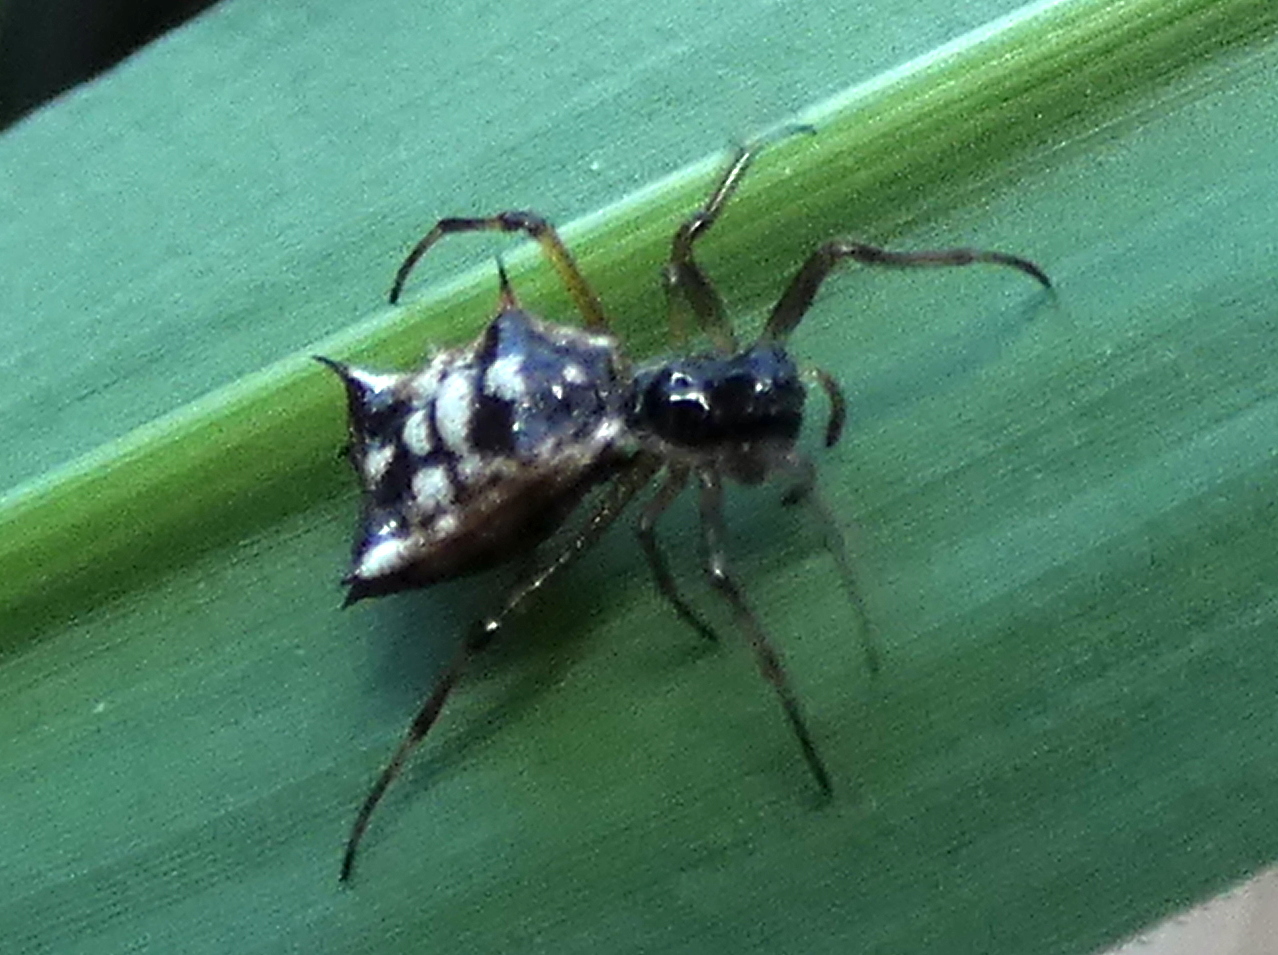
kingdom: Animalia
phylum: Arthropoda
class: Arachnida
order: Araneae
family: Araneidae
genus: Micrathena
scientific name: Micrathena picta
